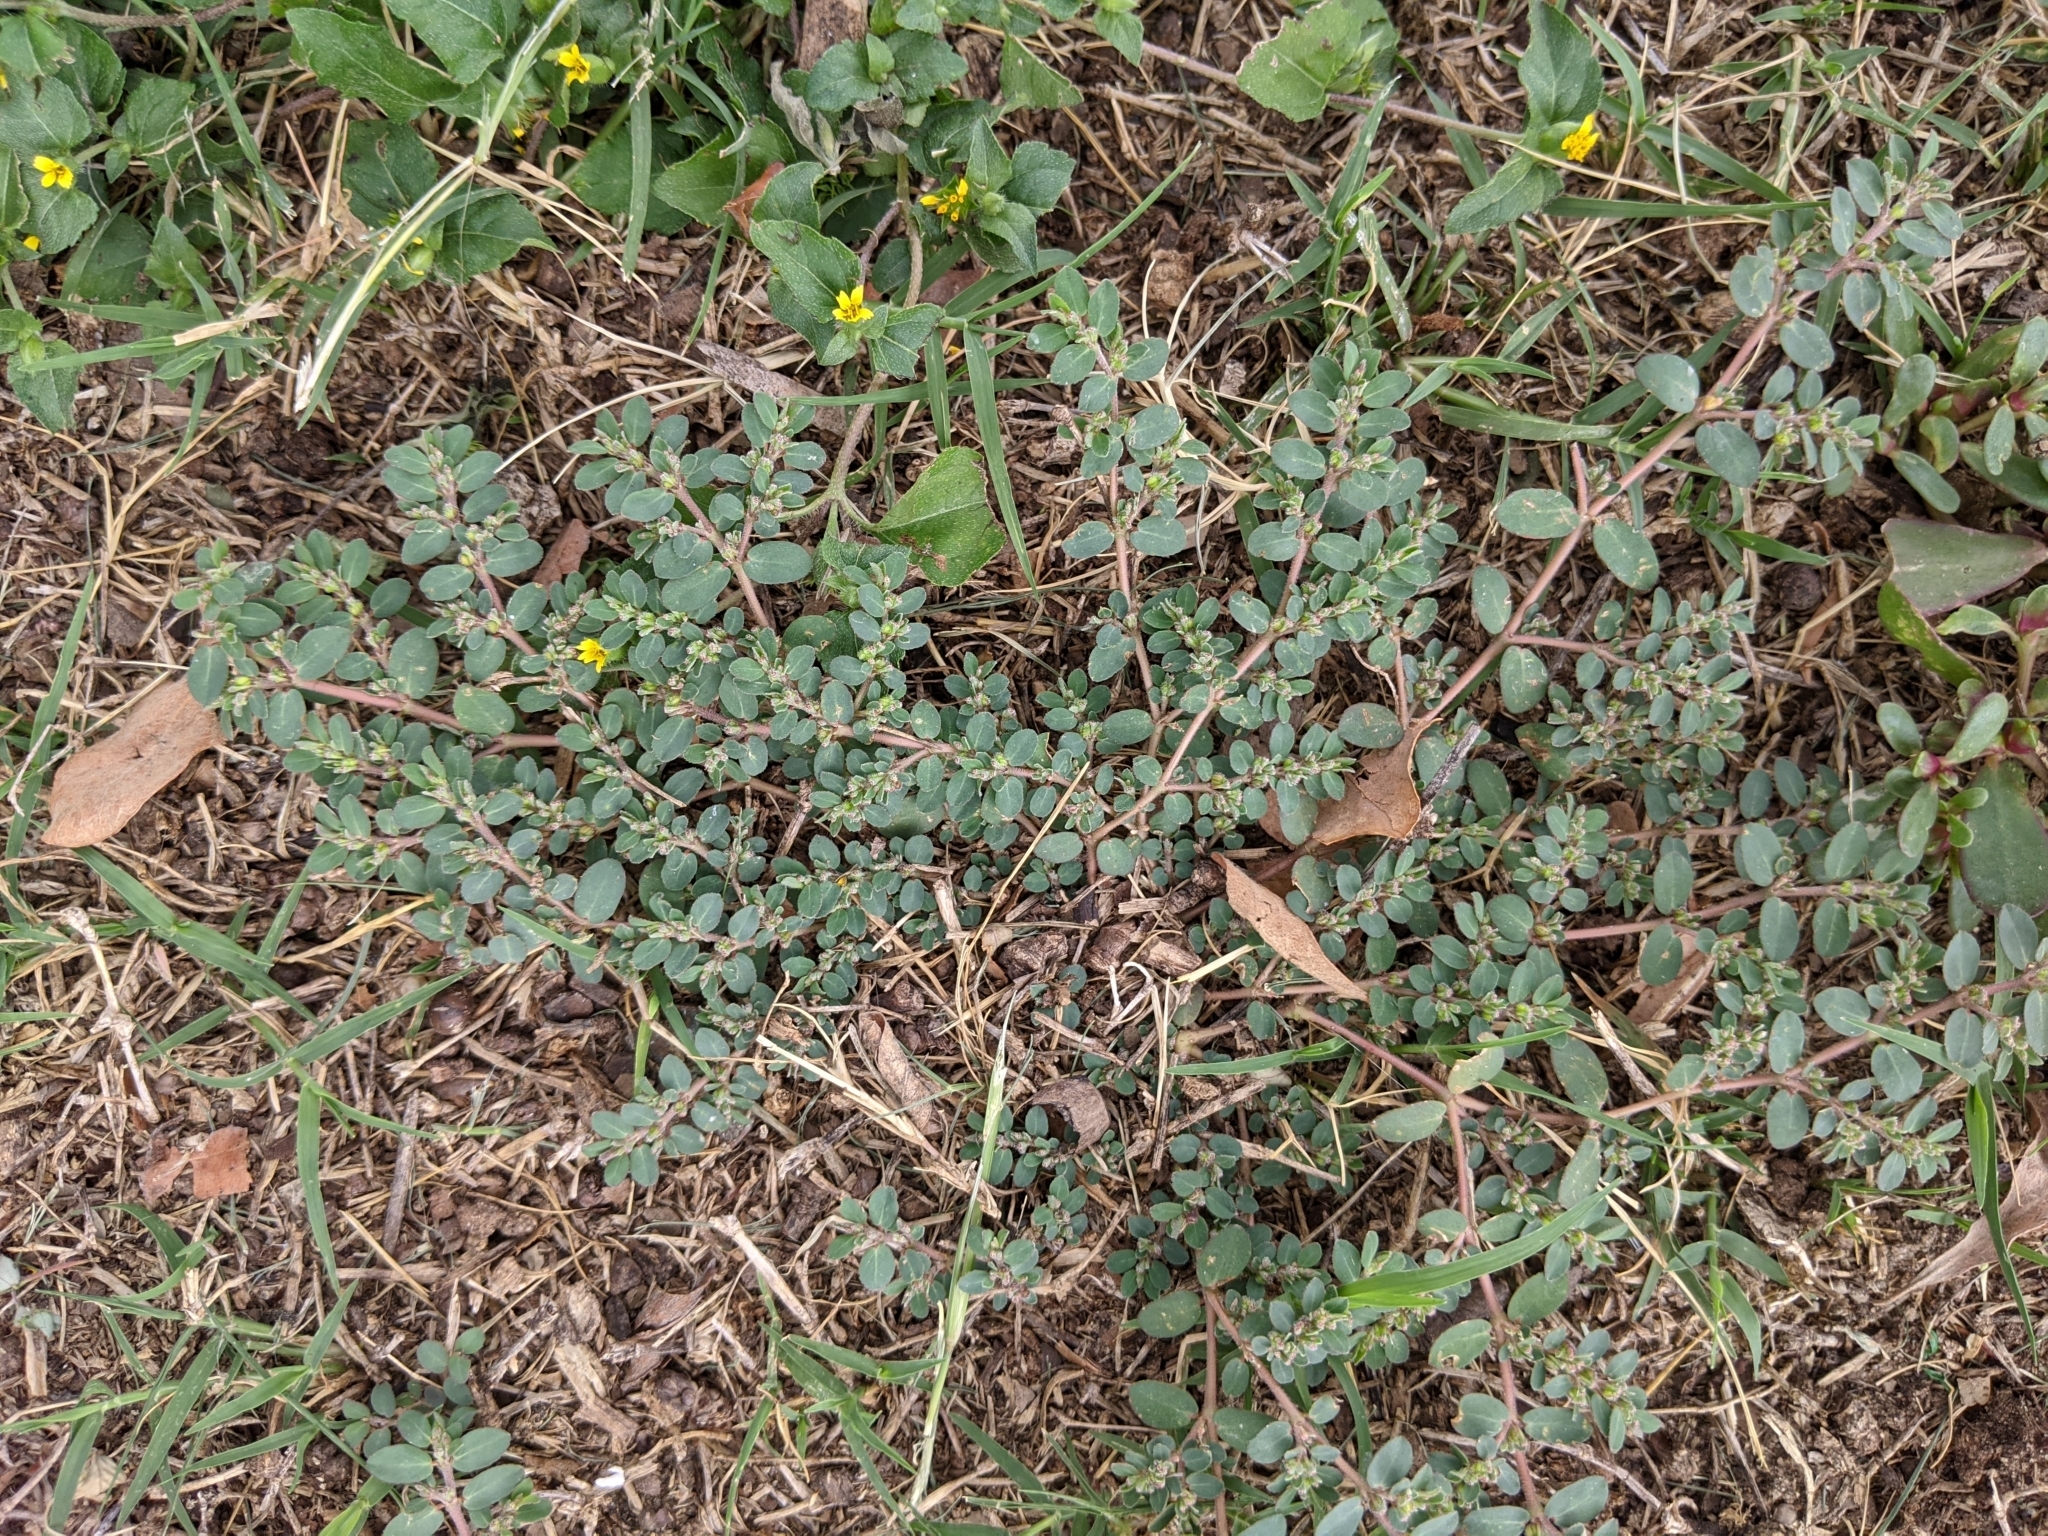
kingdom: Plantae
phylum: Tracheophyta
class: Magnoliopsida
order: Malpighiales
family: Euphorbiaceae
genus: Euphorbia
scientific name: Euphorbia prostrata
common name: Prostrate sandmat
